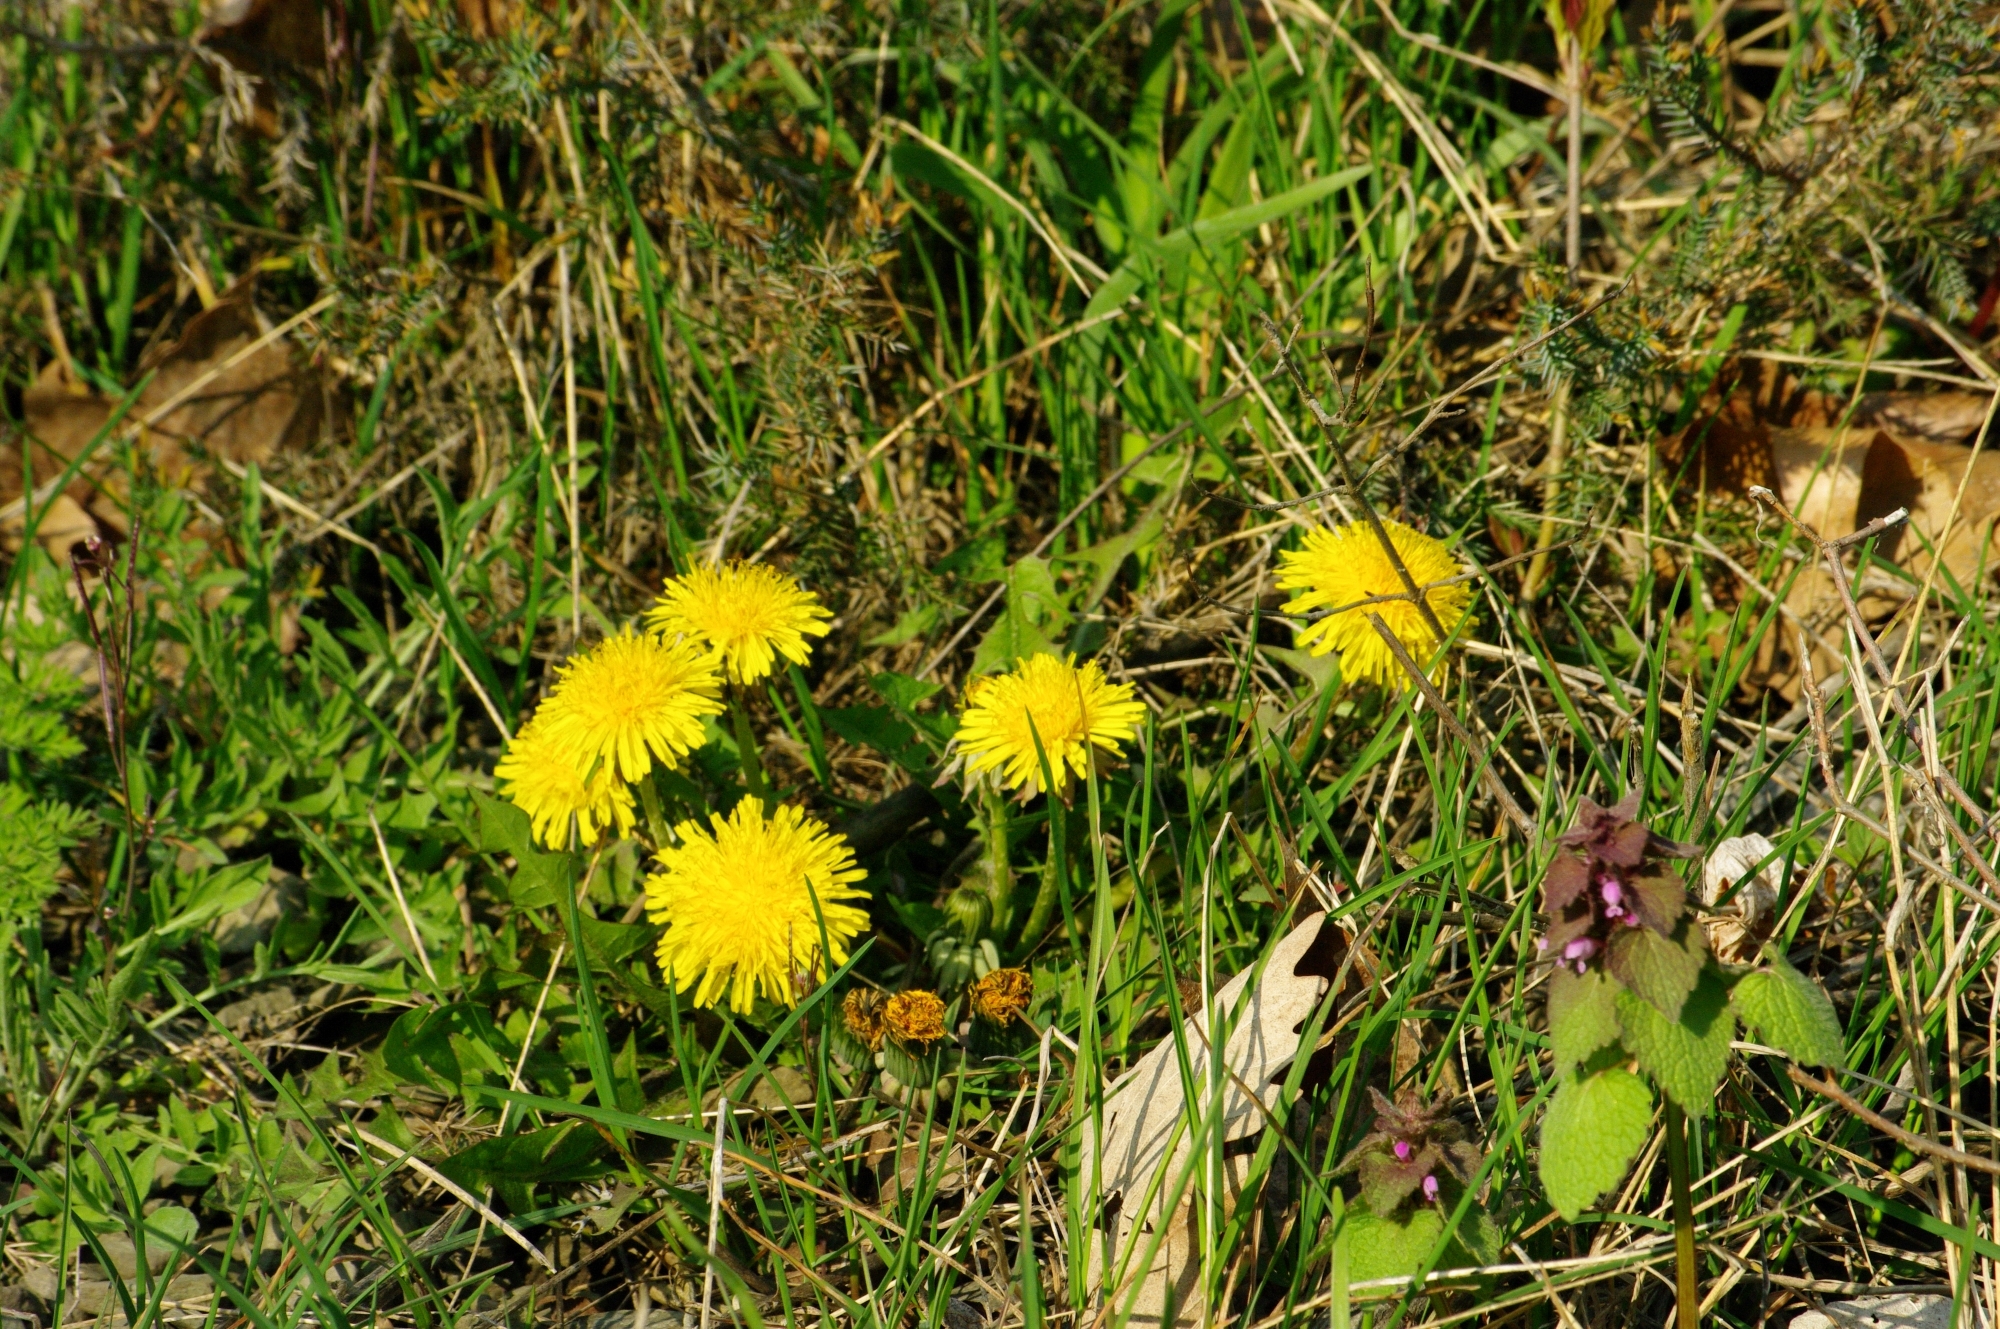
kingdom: Plantae
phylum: Tracheophyta
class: Magnoliopsida
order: Asterales
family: Asteraceae
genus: Taraxacum
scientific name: Taraxacum officinale
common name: Common dandelion
